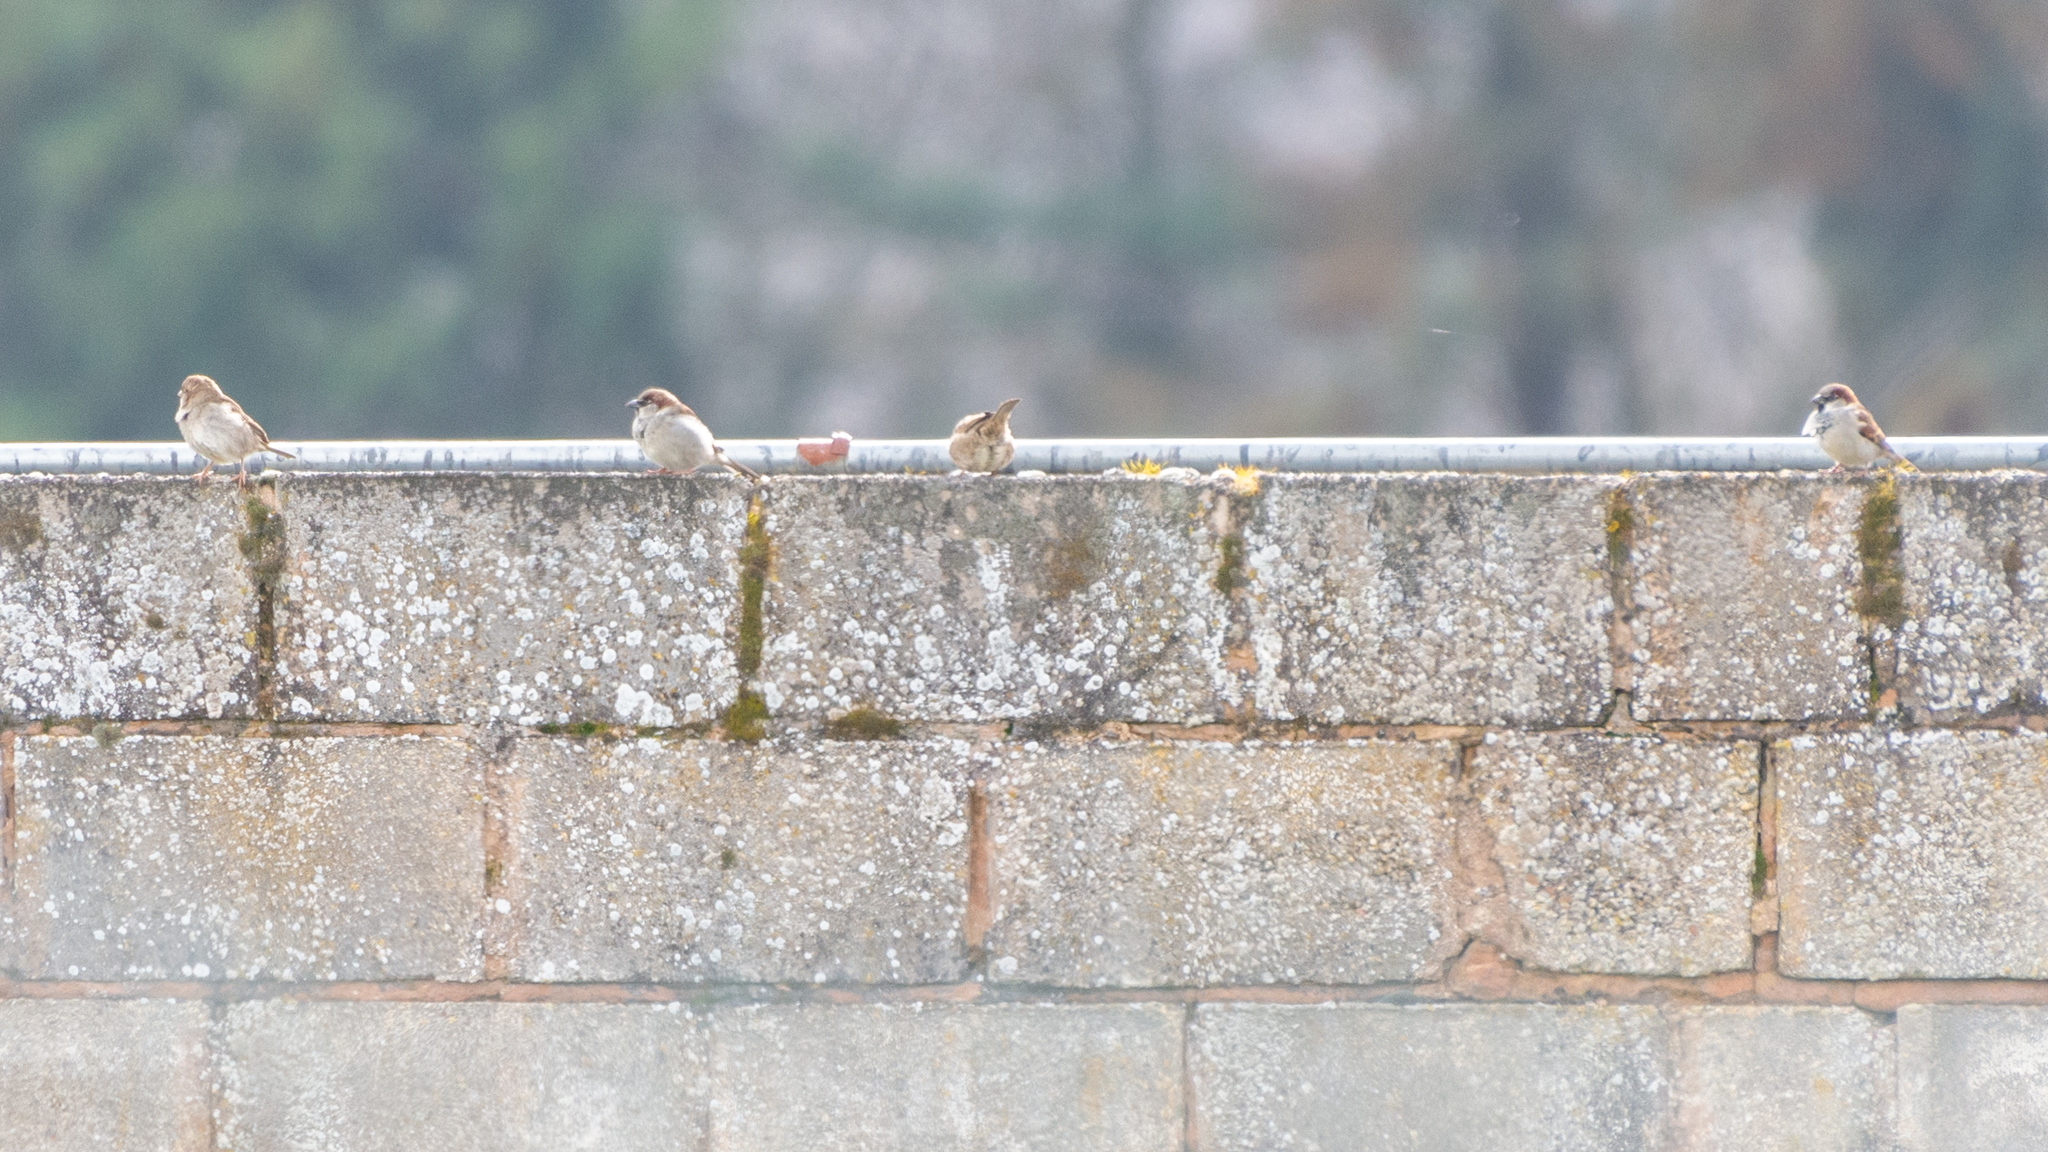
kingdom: Animalia
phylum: Chordata
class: Aves
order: Passeriformes
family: Passeridae
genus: Passer
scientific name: Passer domesticus
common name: House sparrow
